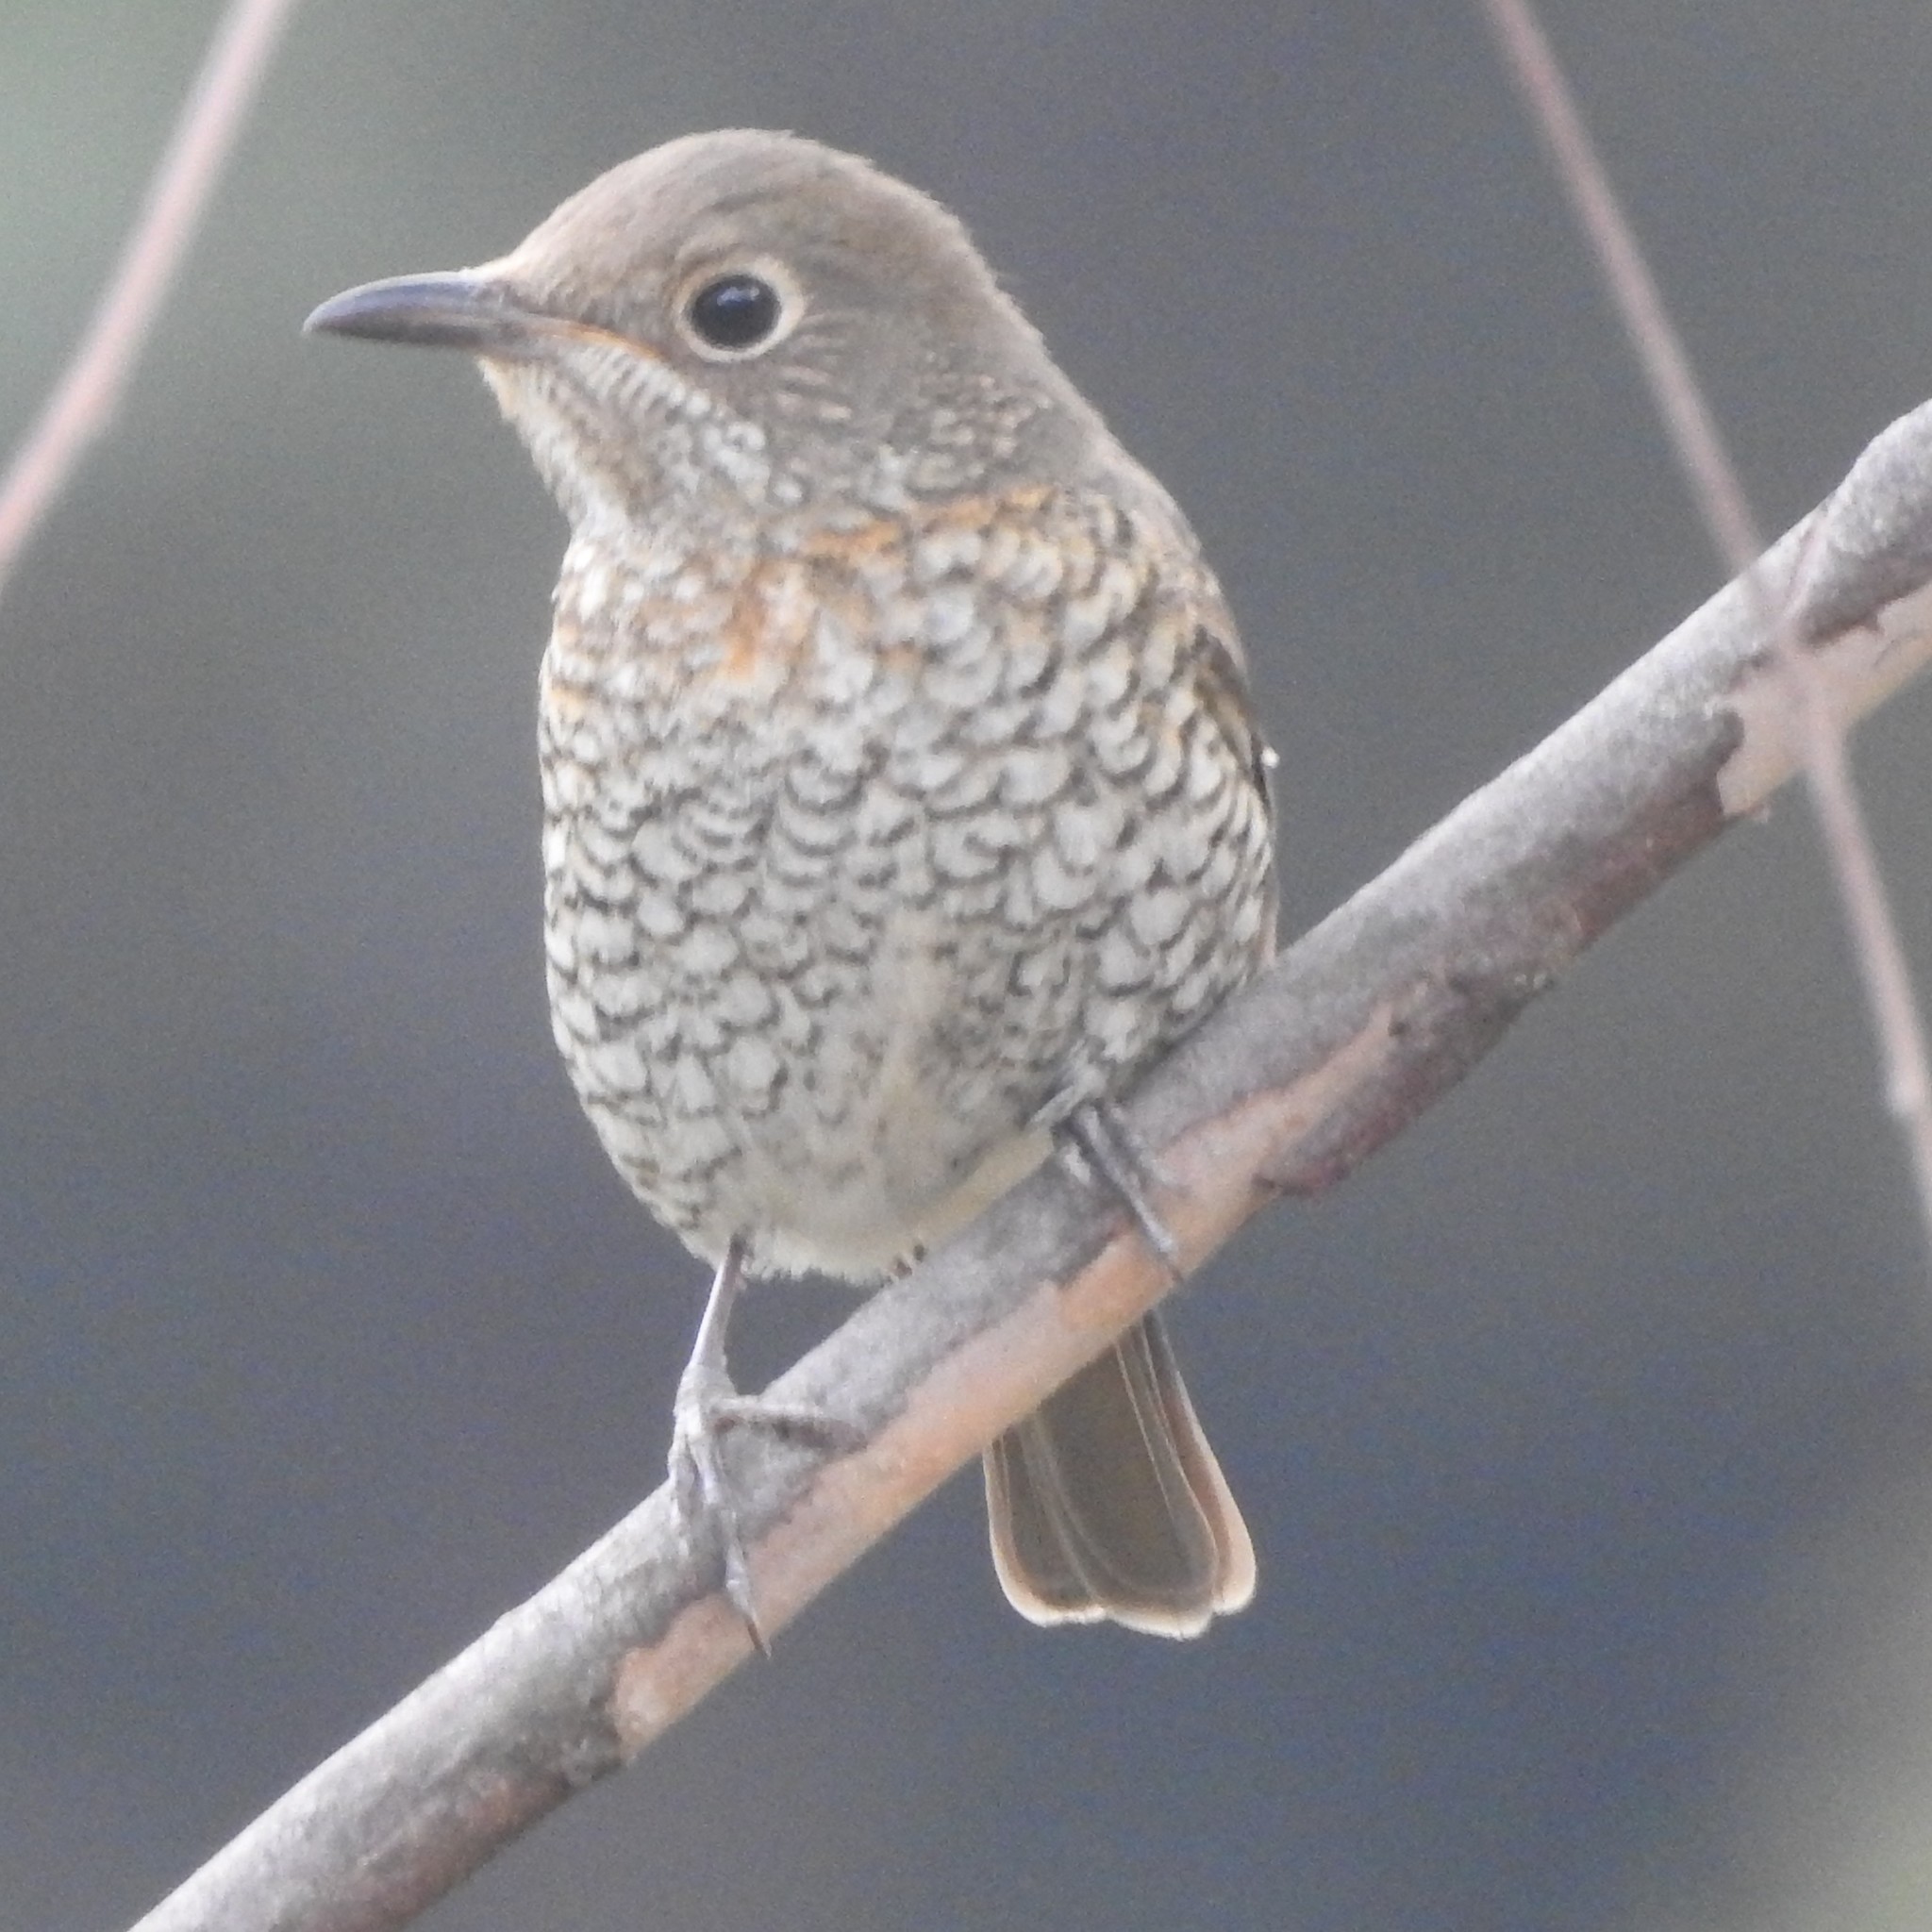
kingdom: Animalia
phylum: Chordata
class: Aves
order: Passeriformes
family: Muscicapidae
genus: Monticola
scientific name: Monticola cinclorhynchus
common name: Blue-capped rock thrush
